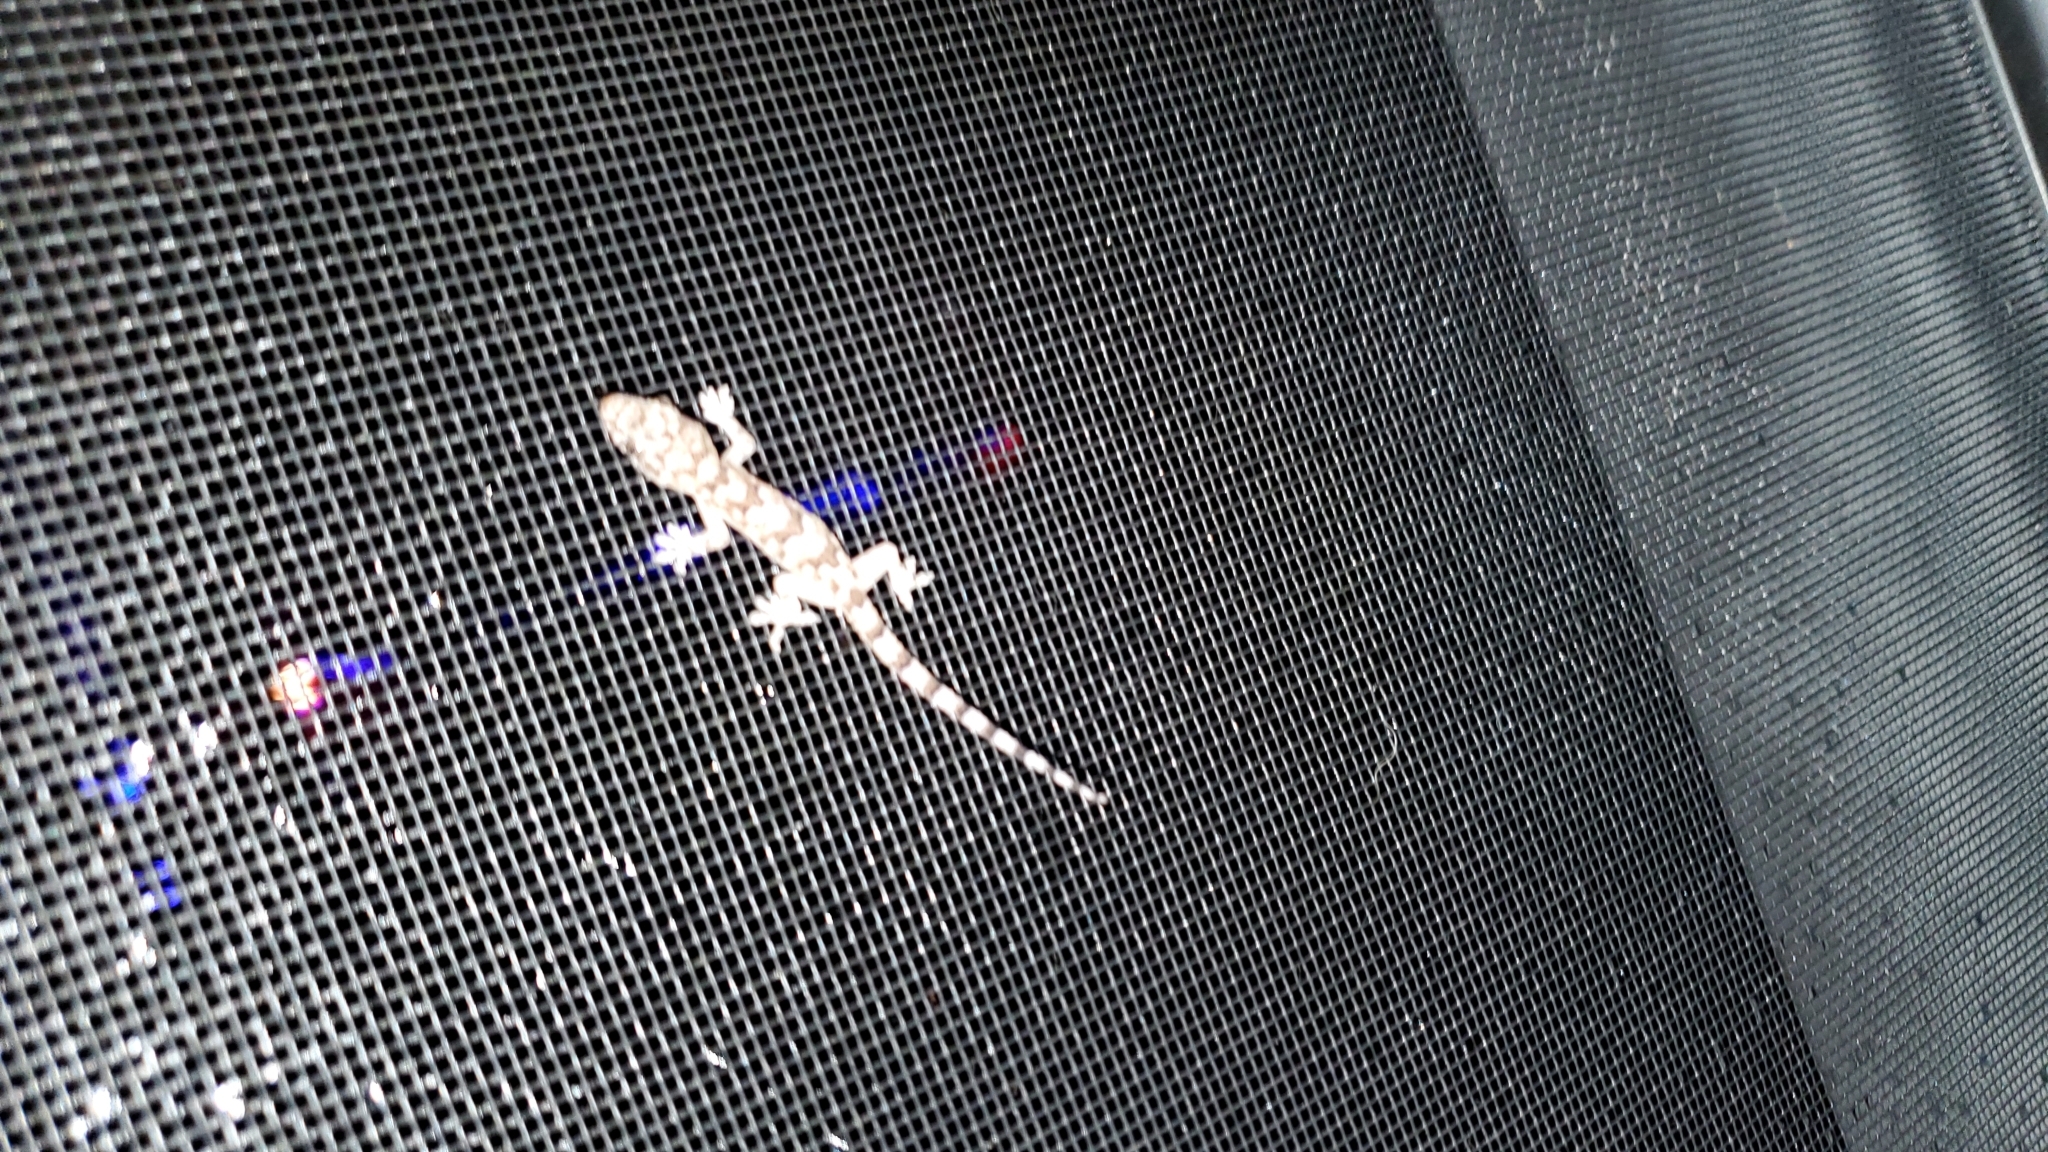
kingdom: Animalia
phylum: Chordata
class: Squamata
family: Gekkonidae
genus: Hemidactylus
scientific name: Hemidactylus mabouia
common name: House gecko
